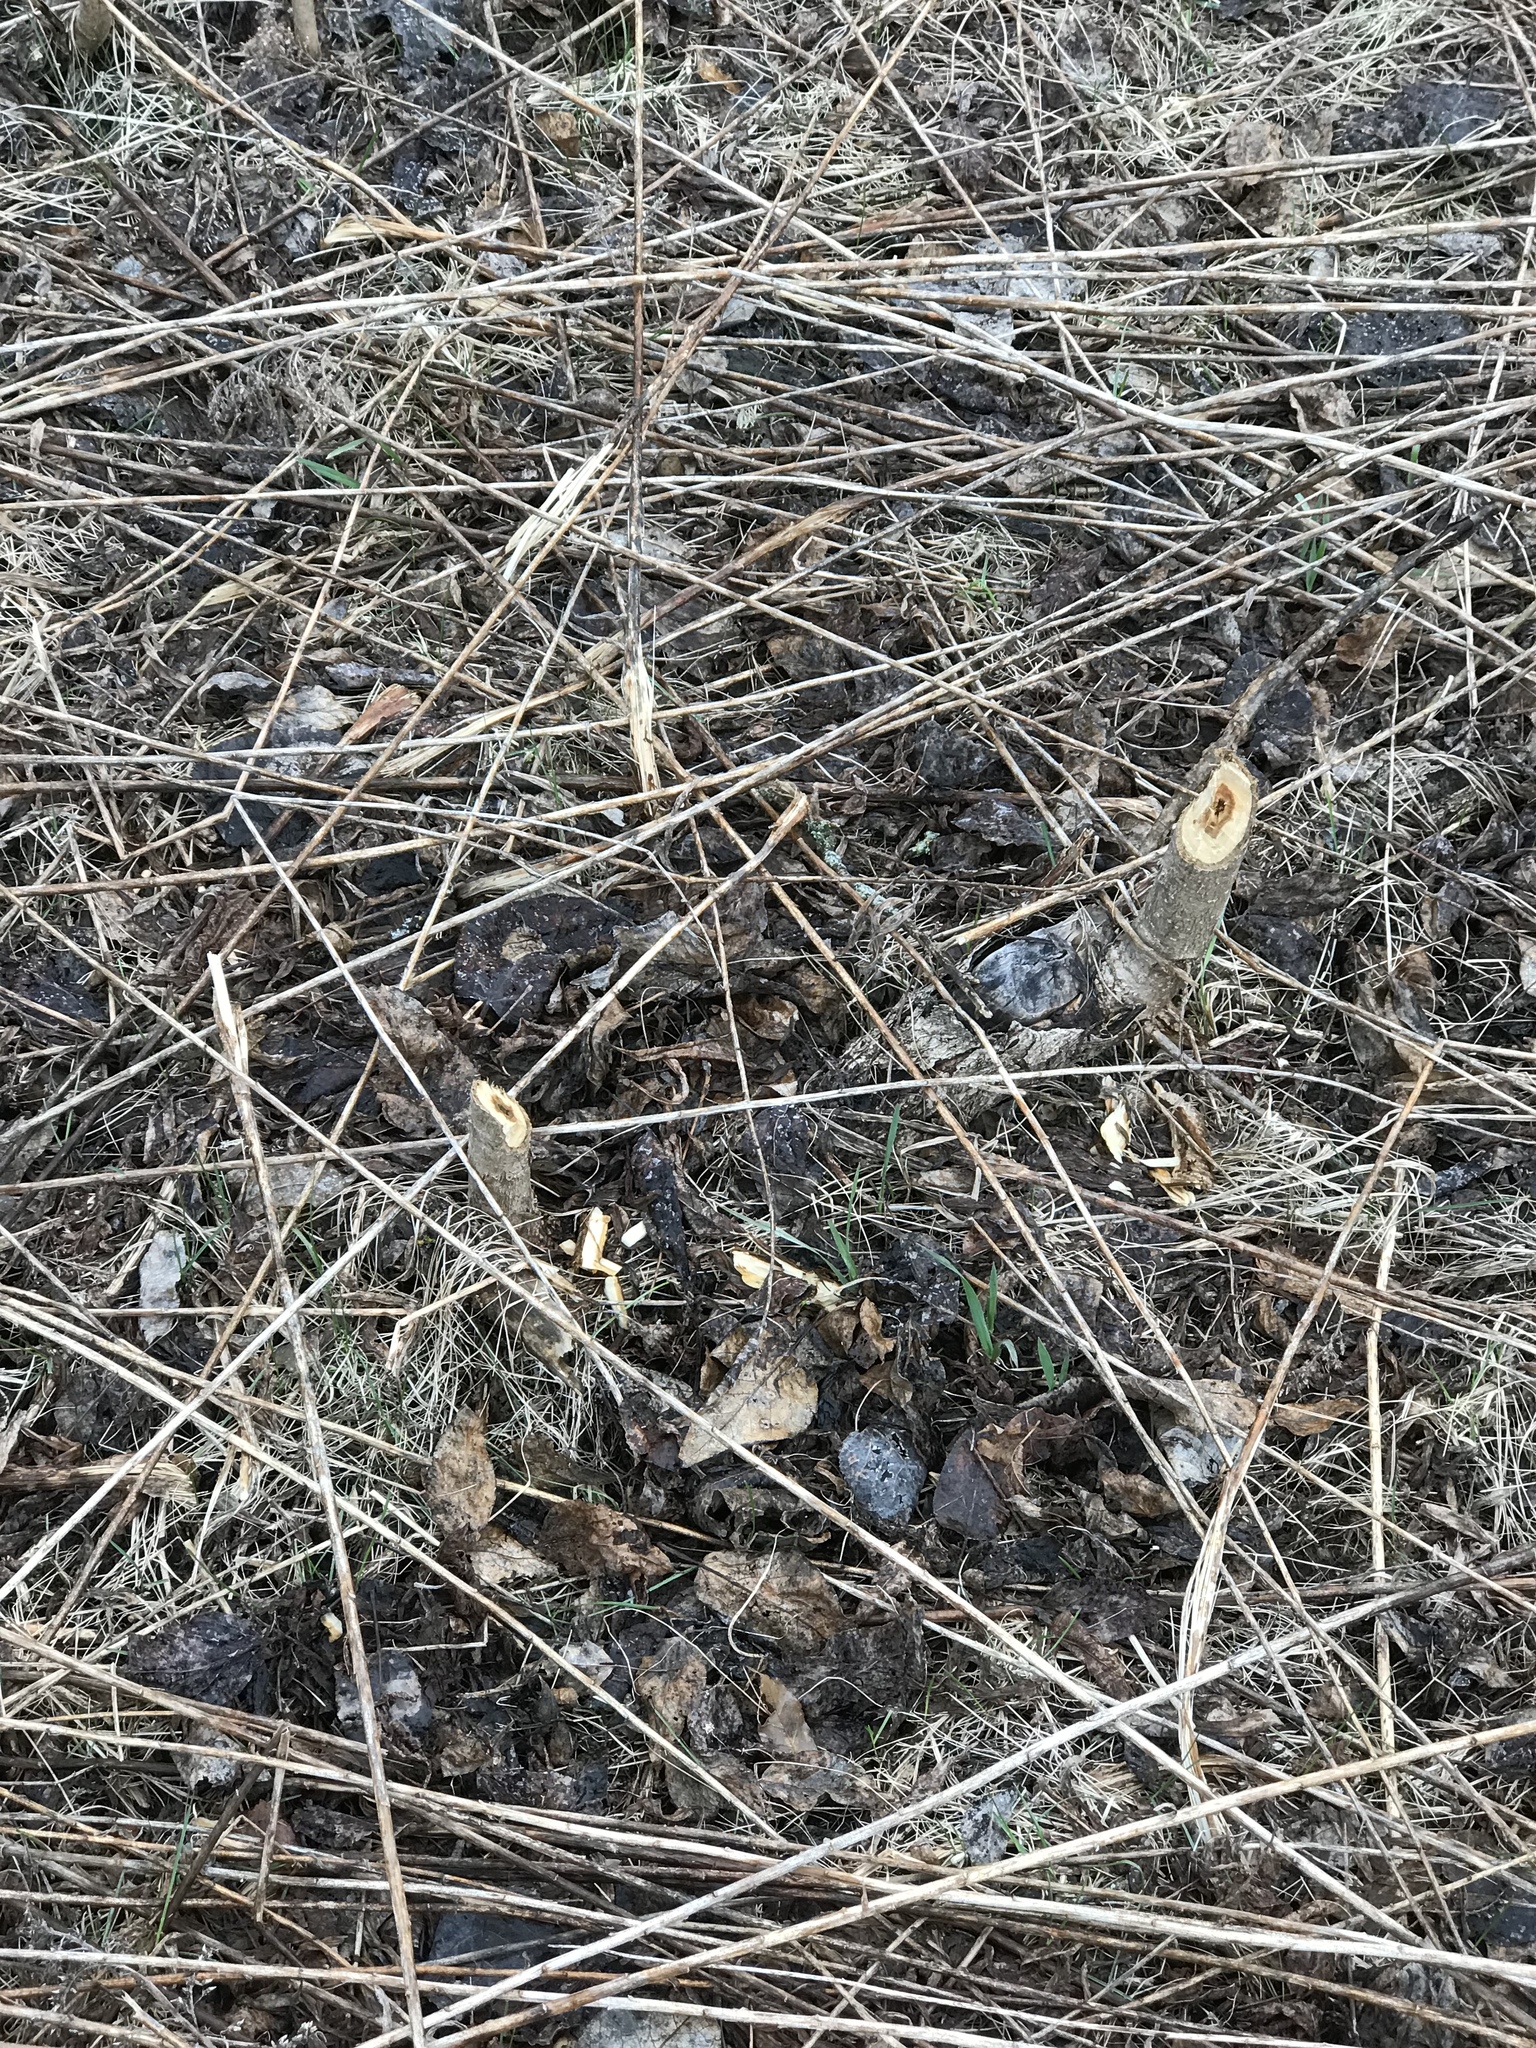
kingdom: Animalia
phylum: Chordata
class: Mammalia
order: Rodentia
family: Castoridae
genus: Castor
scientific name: Castor canadensis
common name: American beaver
